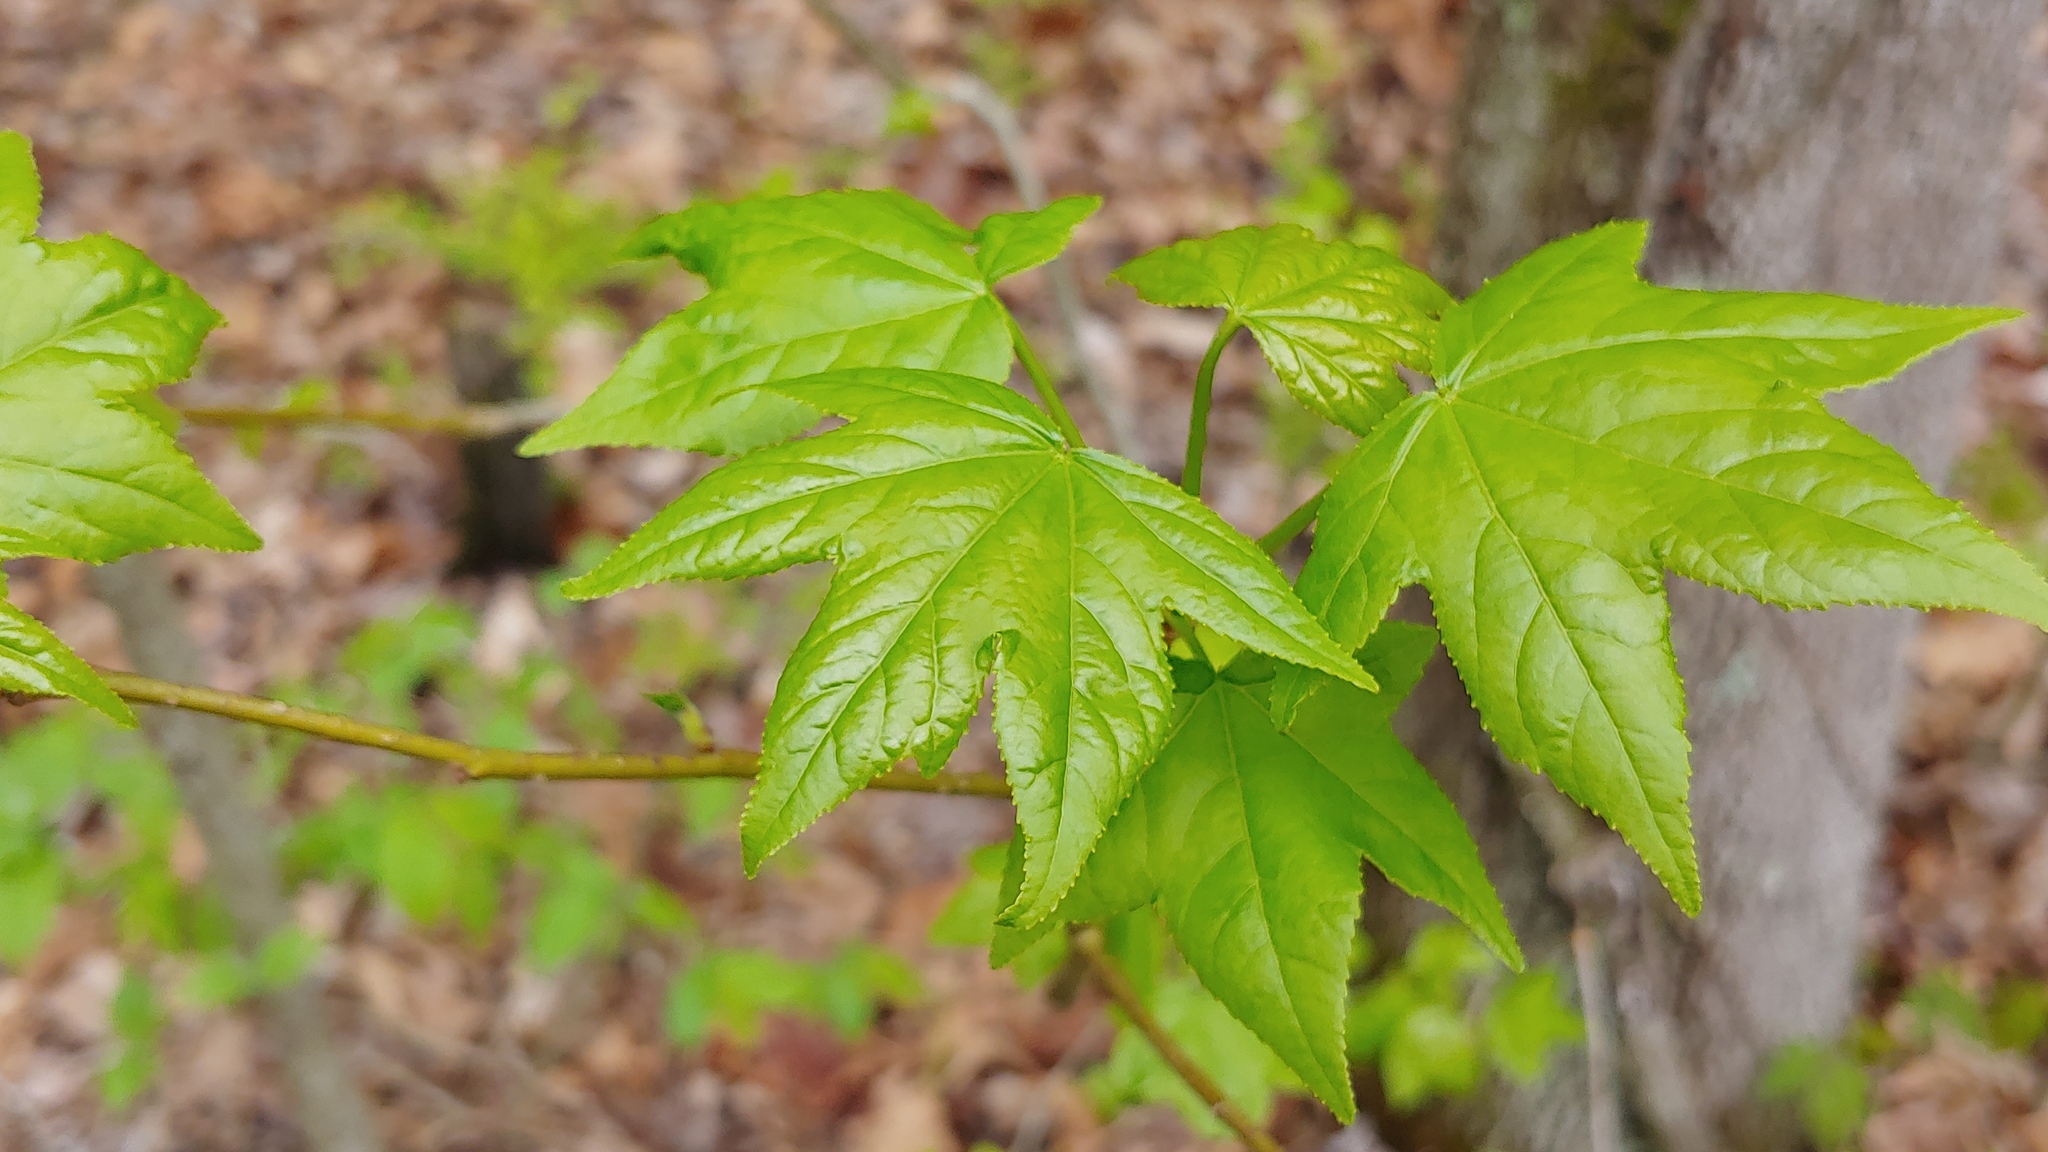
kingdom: Plantae
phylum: Tracheophyta
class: Magnoliopsida
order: Saxifragales
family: Altingiaceae
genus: Liquidambar
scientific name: Liquidambar styraciflua
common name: Sweet gum
